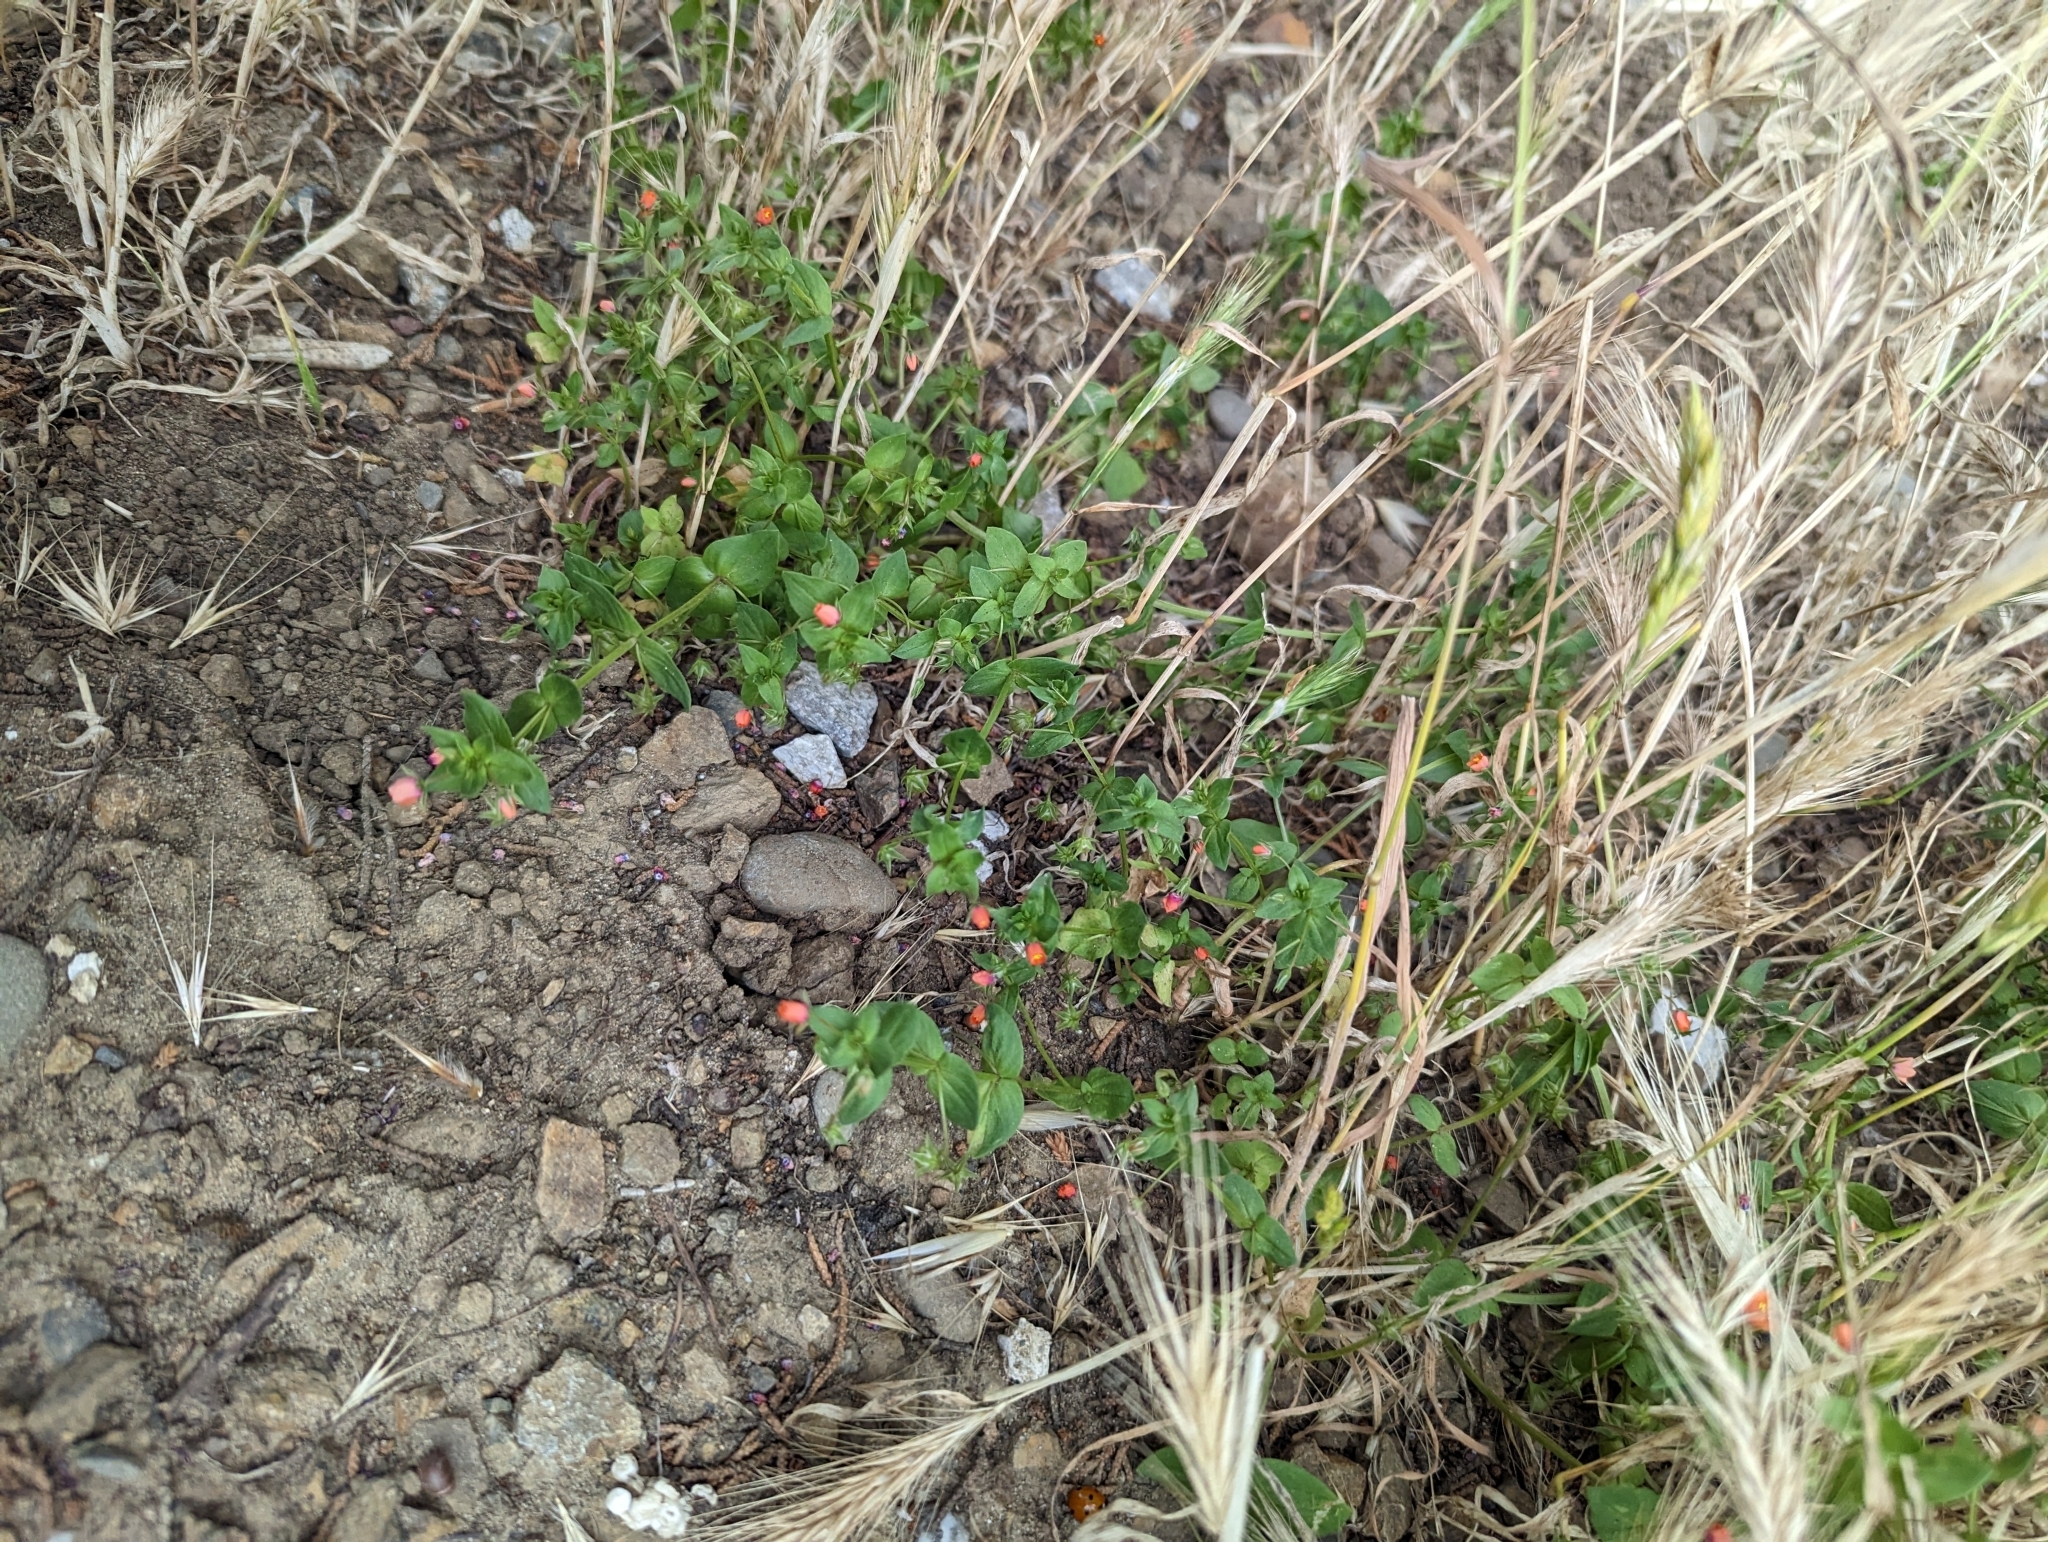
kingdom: Plantae
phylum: Tracheophyta
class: Magnoliopsida
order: Ericales
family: Primulaceae
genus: Lysimachia
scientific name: Lysimachia arvensis
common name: Scarlet pimpernel
